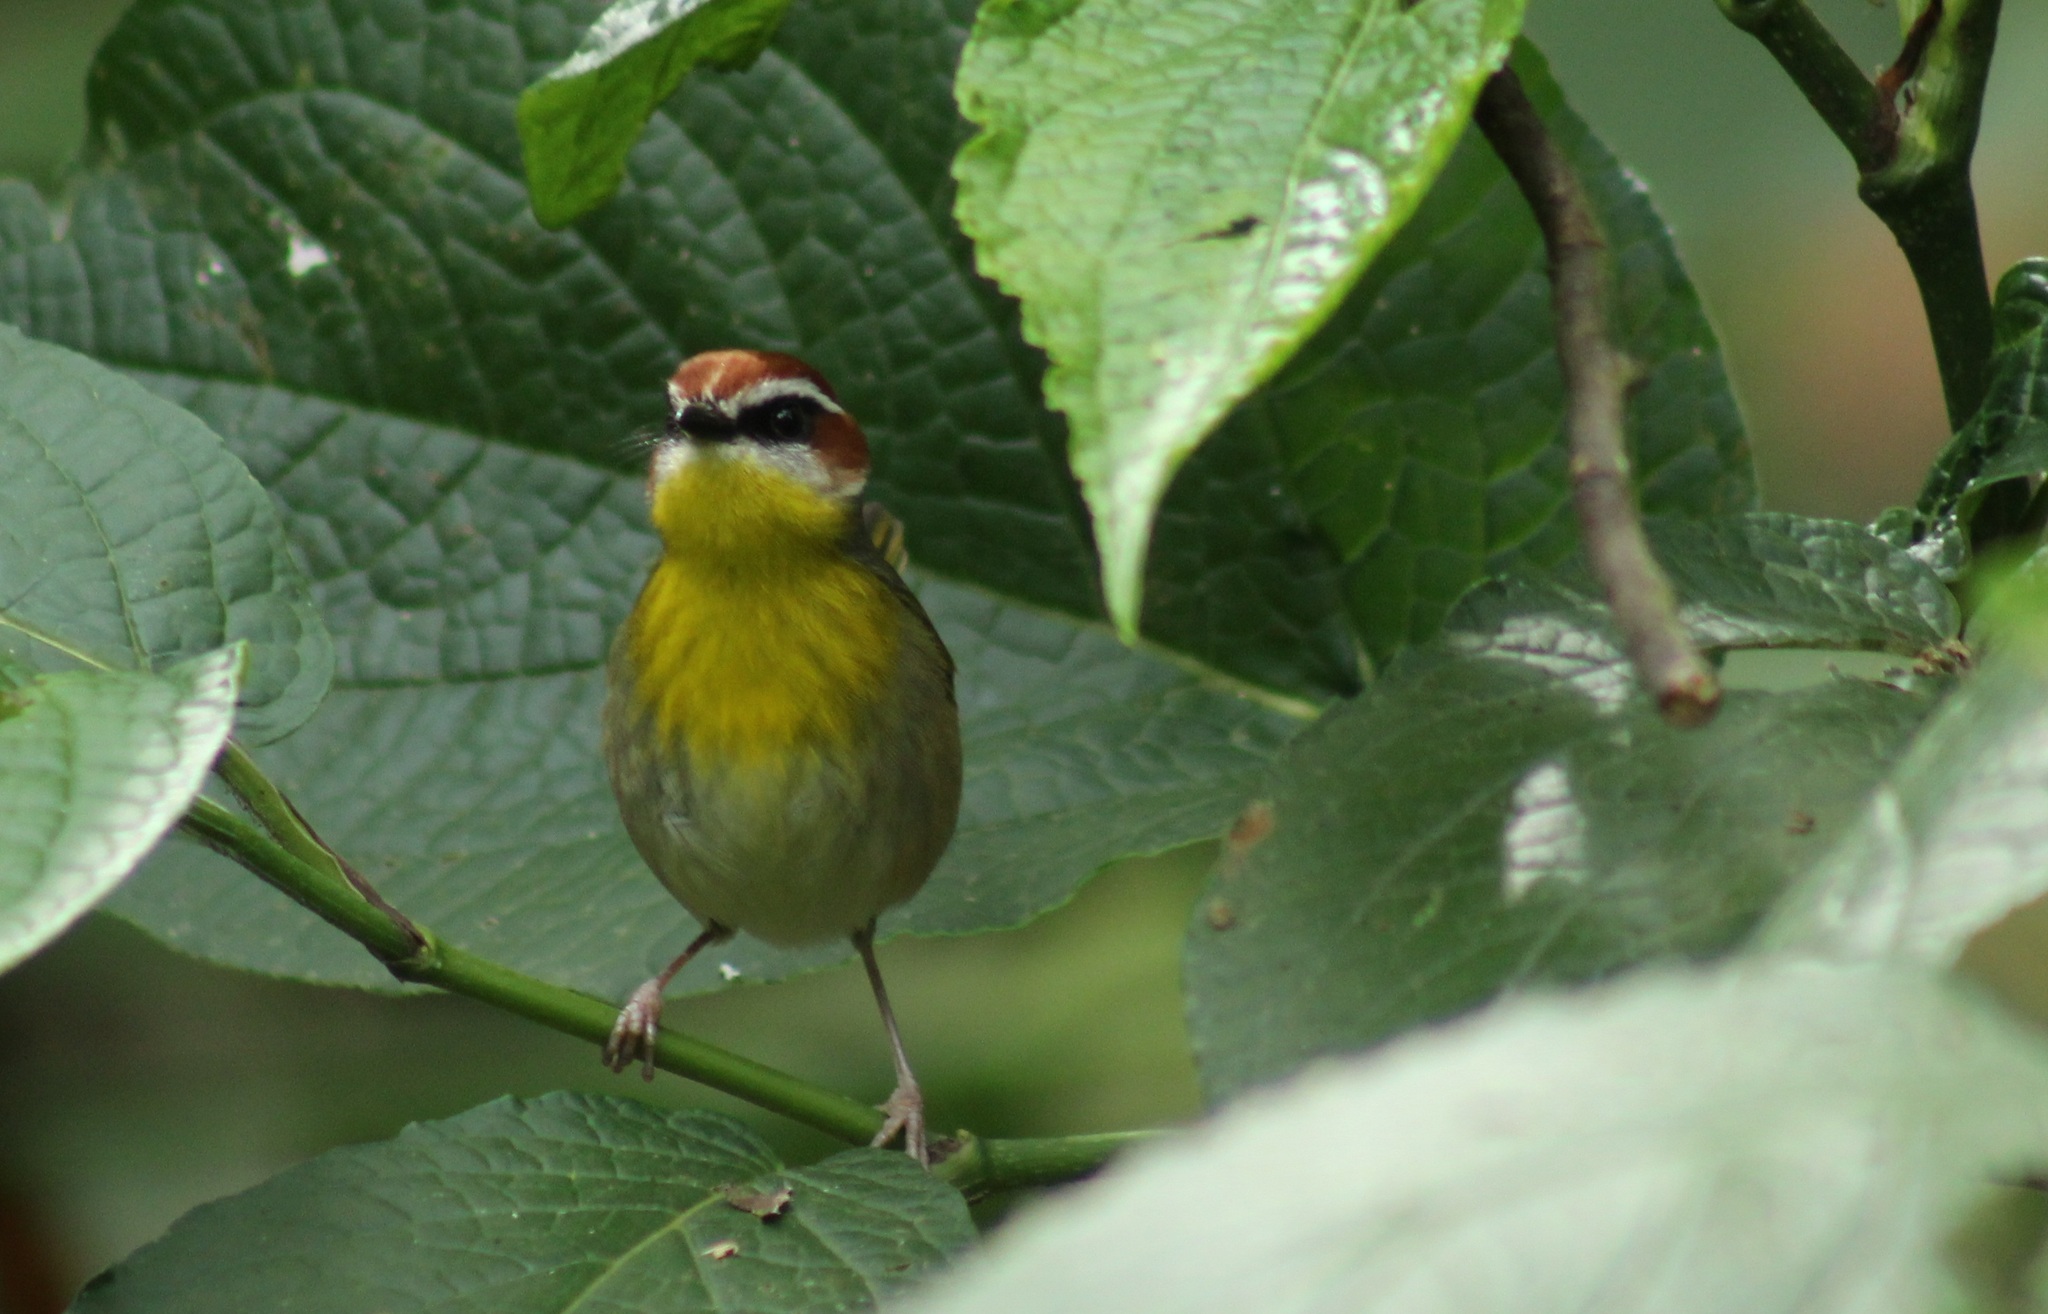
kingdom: Animalia
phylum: Chordata
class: Aves
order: Passeriformes
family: Parulidae
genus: Basileuterus
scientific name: Basileuterus rufifrons
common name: Rufous-capped warbler
